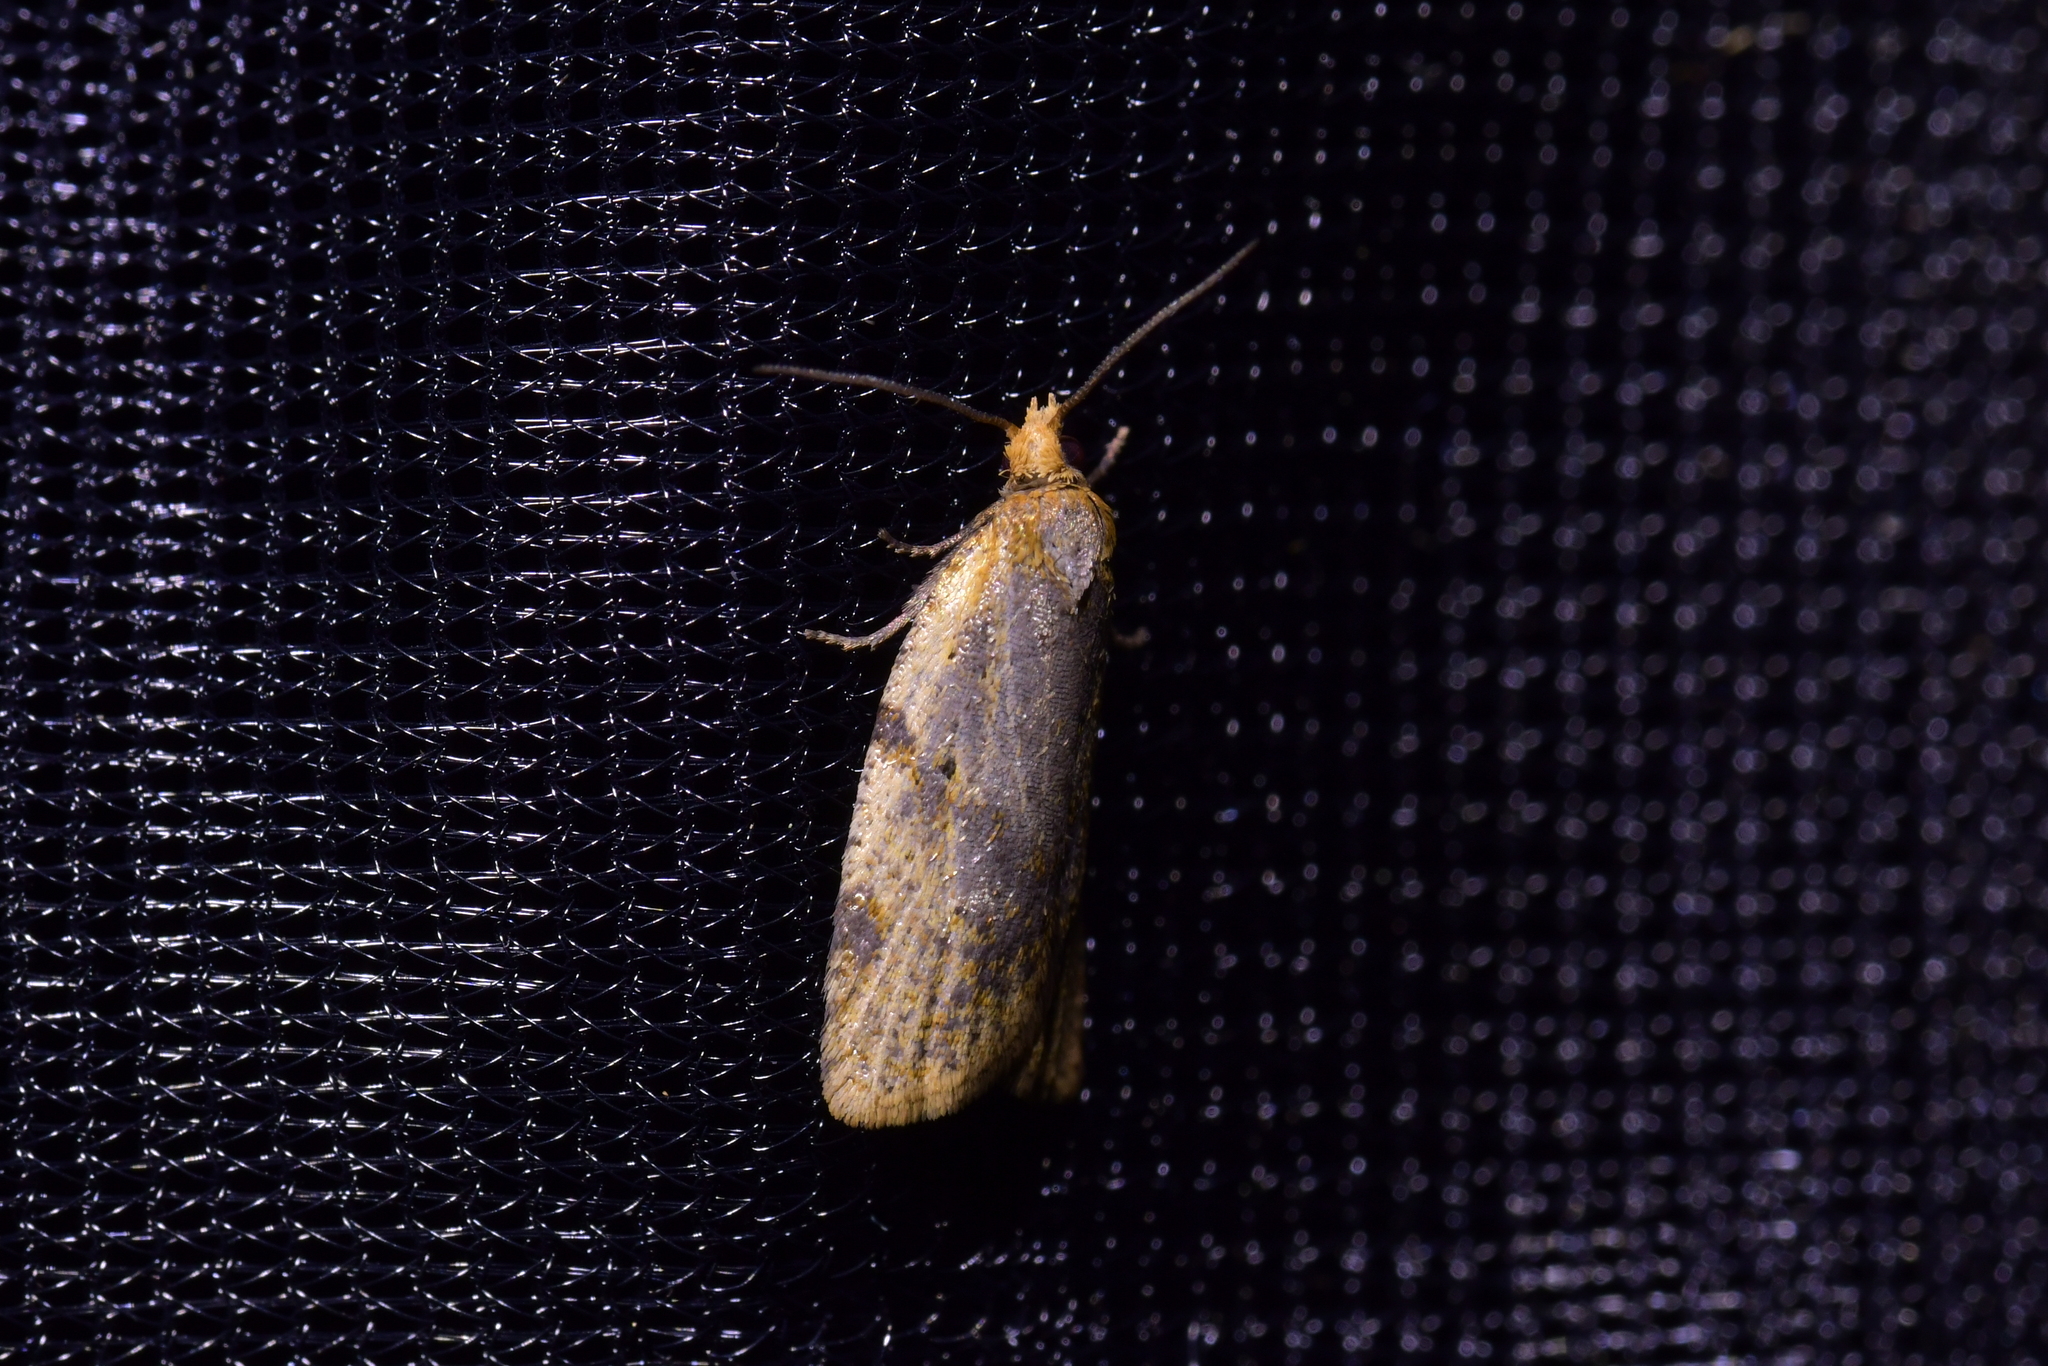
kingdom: Animalia
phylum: Arthropoda
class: Insecta
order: Lepidoptera
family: Tortricidae
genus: Clepsis
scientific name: Clepsis
